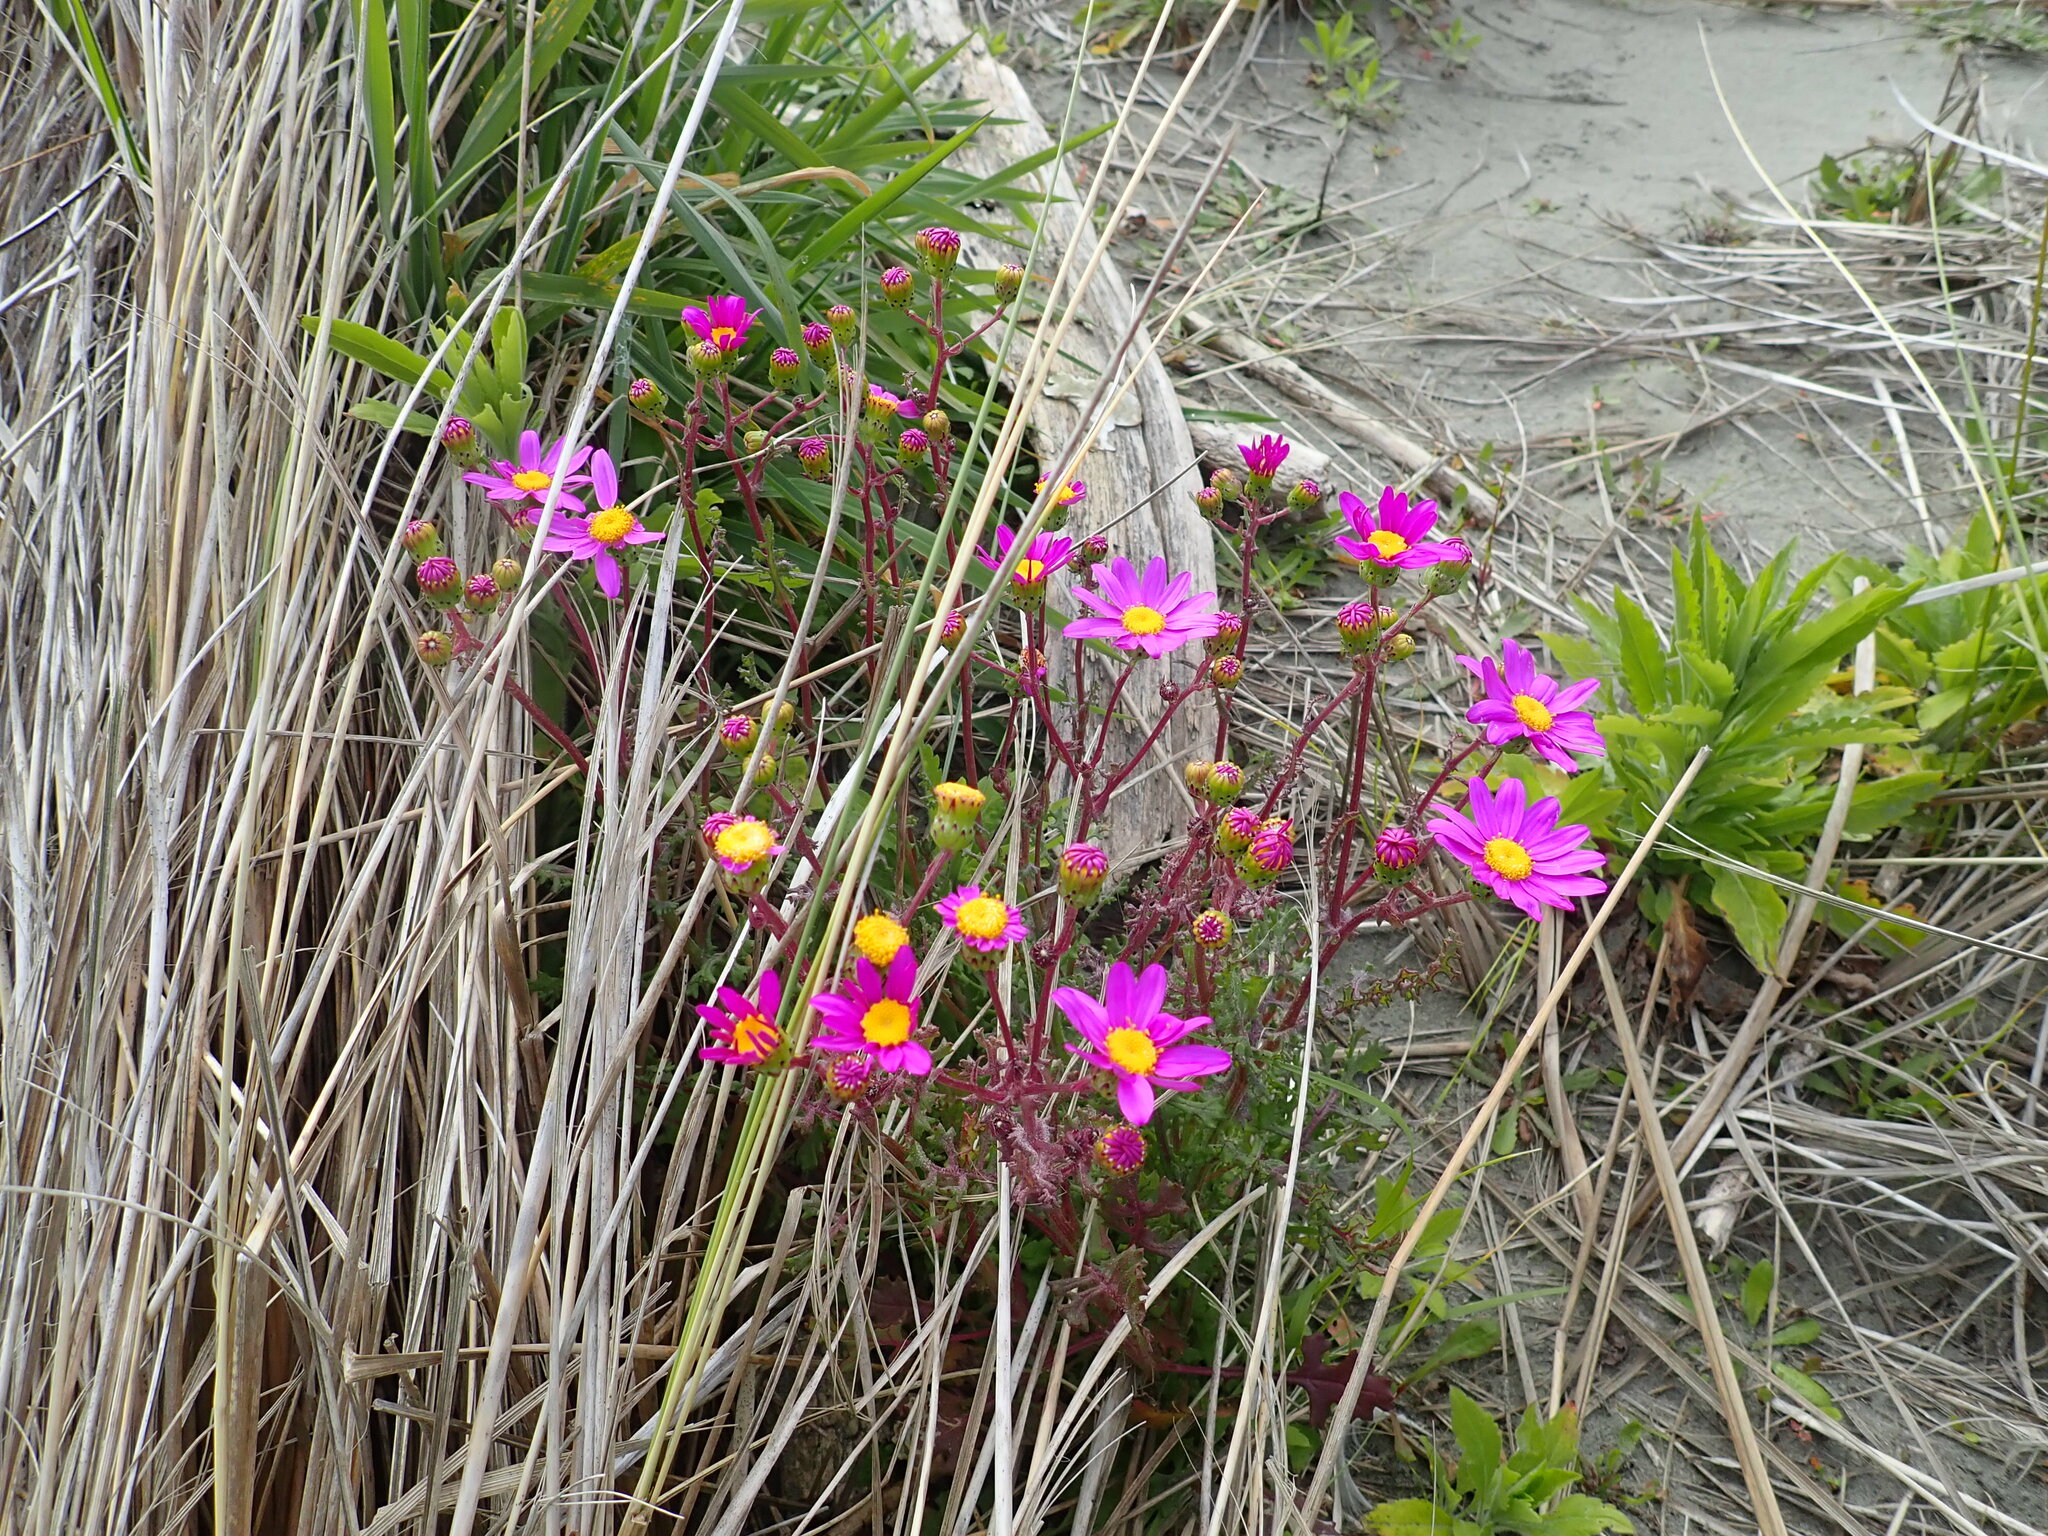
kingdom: Plantae
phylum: Tracheophyta
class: Magnoliopsida
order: Asterales
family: Asteraceae
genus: Senecio
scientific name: Senecio elegans
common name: Purple groundsel
